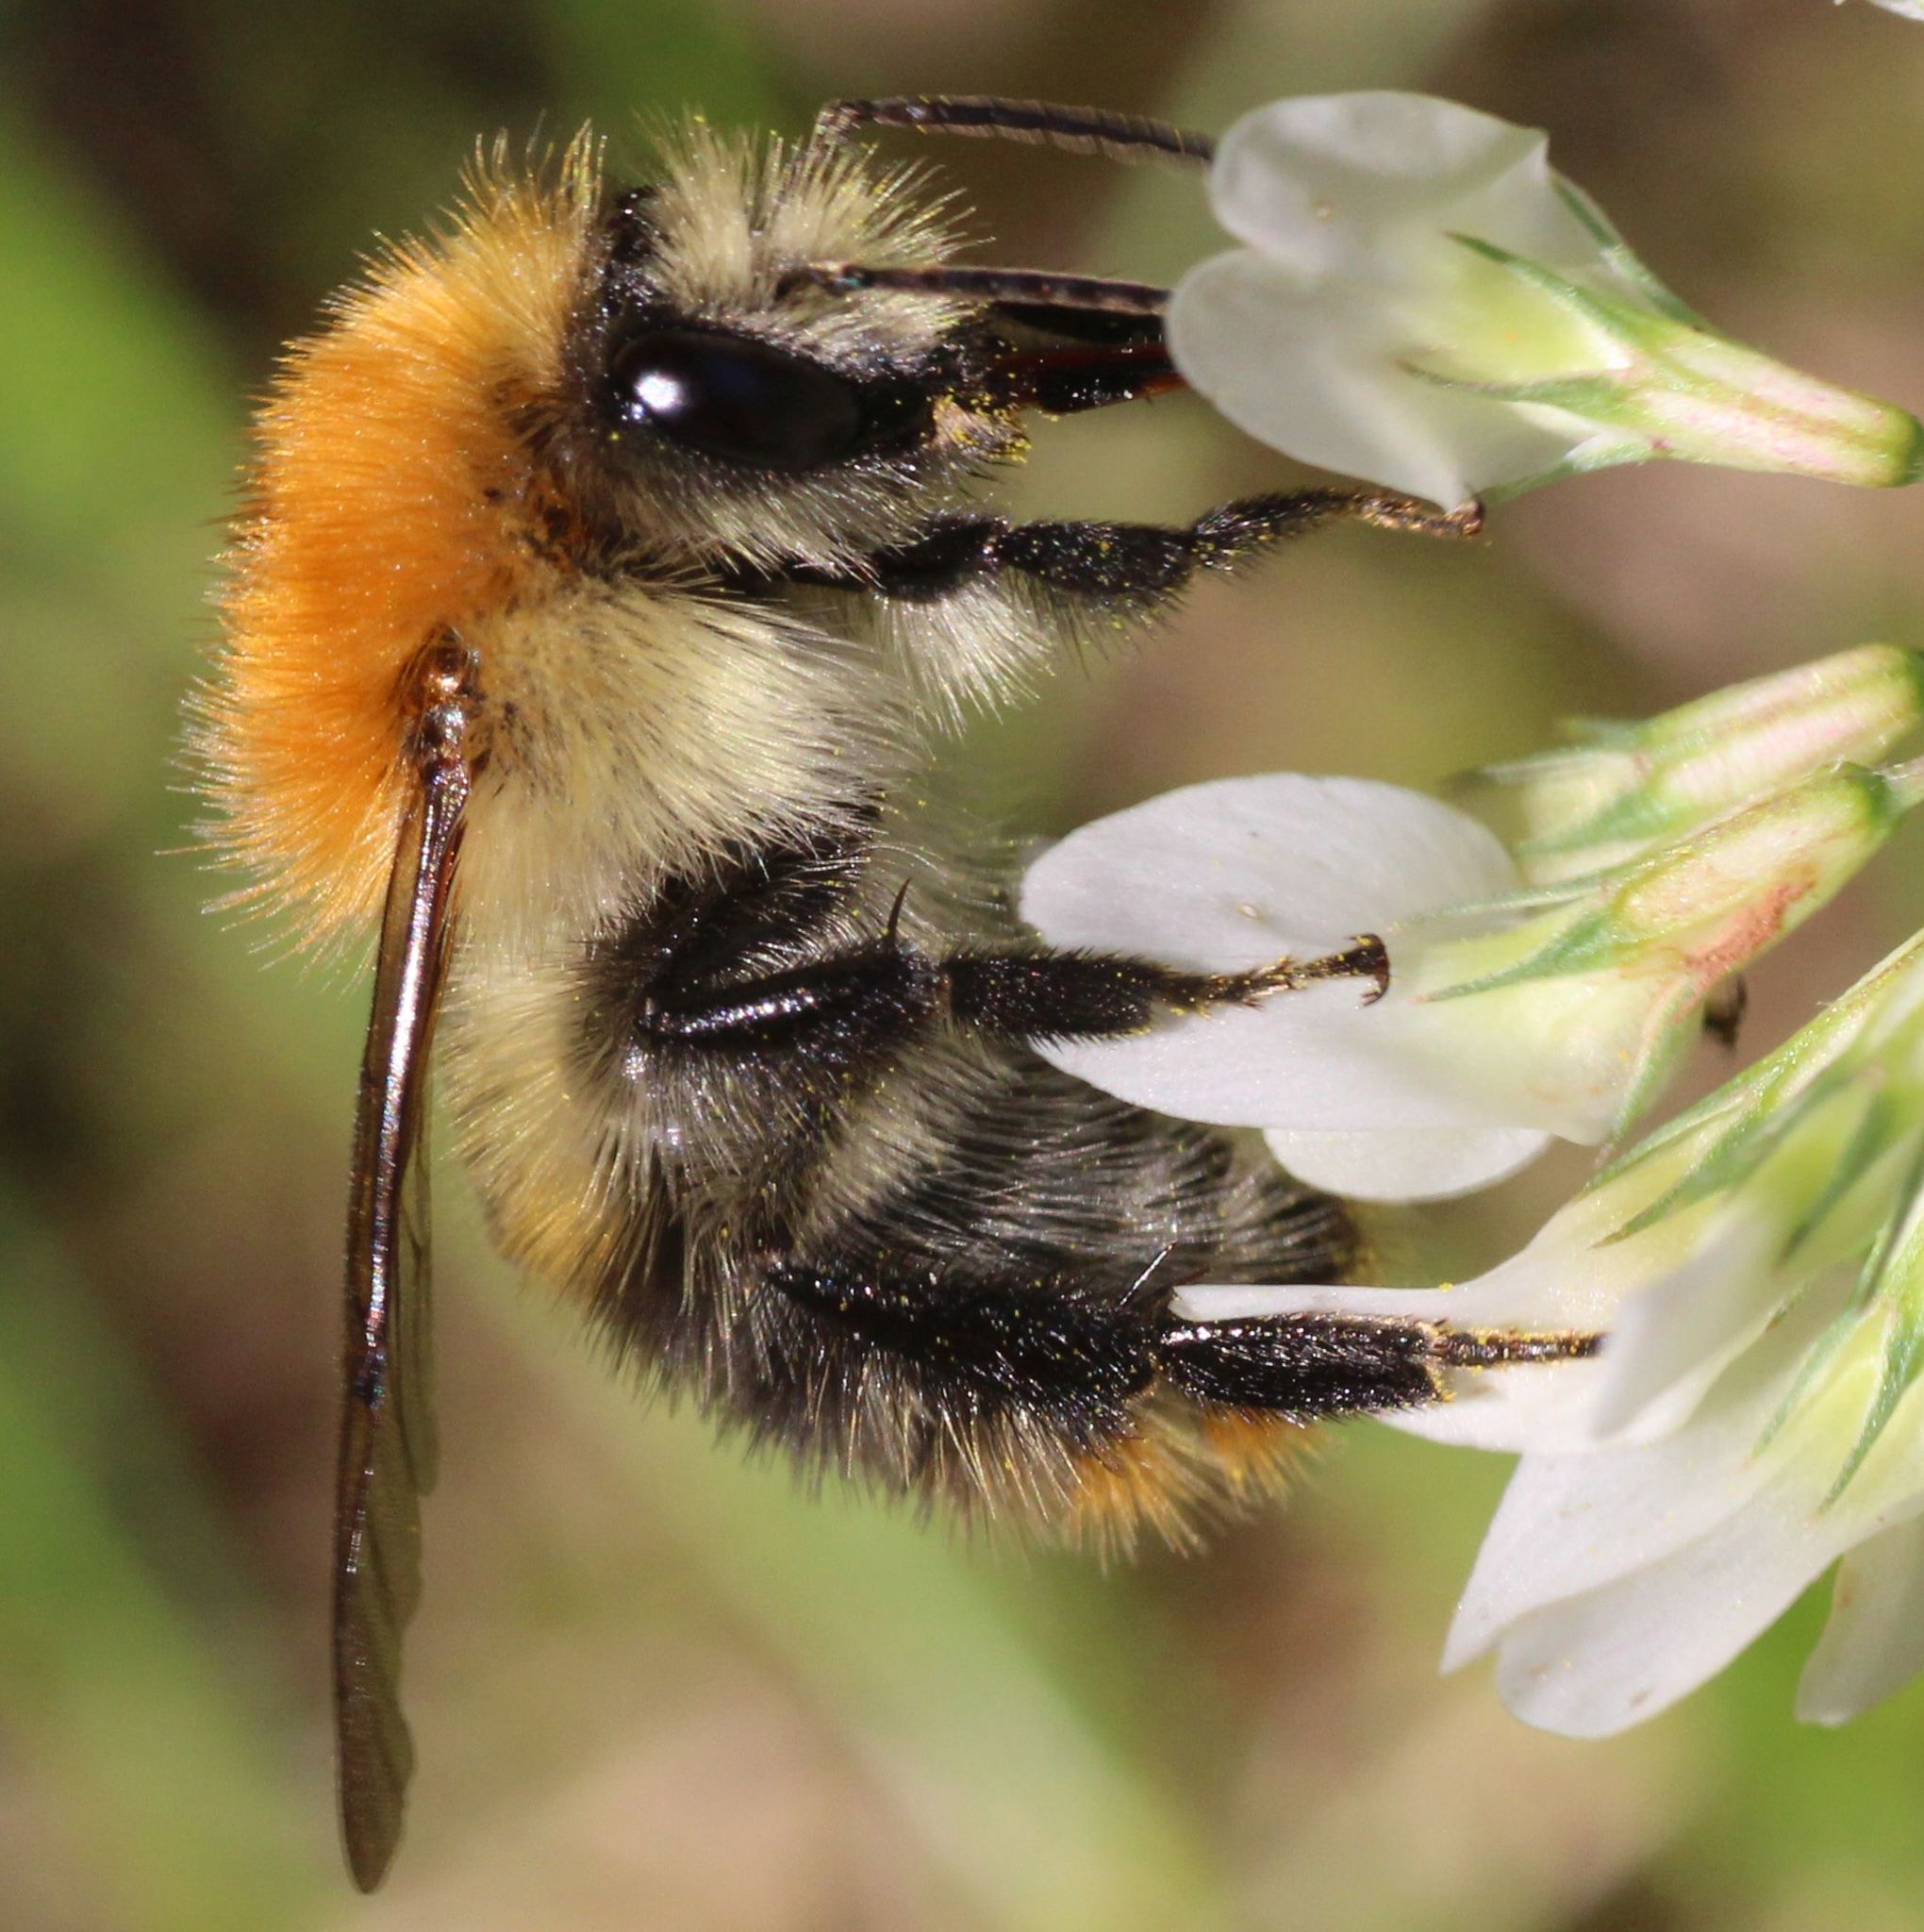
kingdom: Animalia
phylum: Arthropoda
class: Insecta
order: Hymenoptera
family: Apidae
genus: Bombus
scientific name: Bombus pascuorum
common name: Common carder bee
